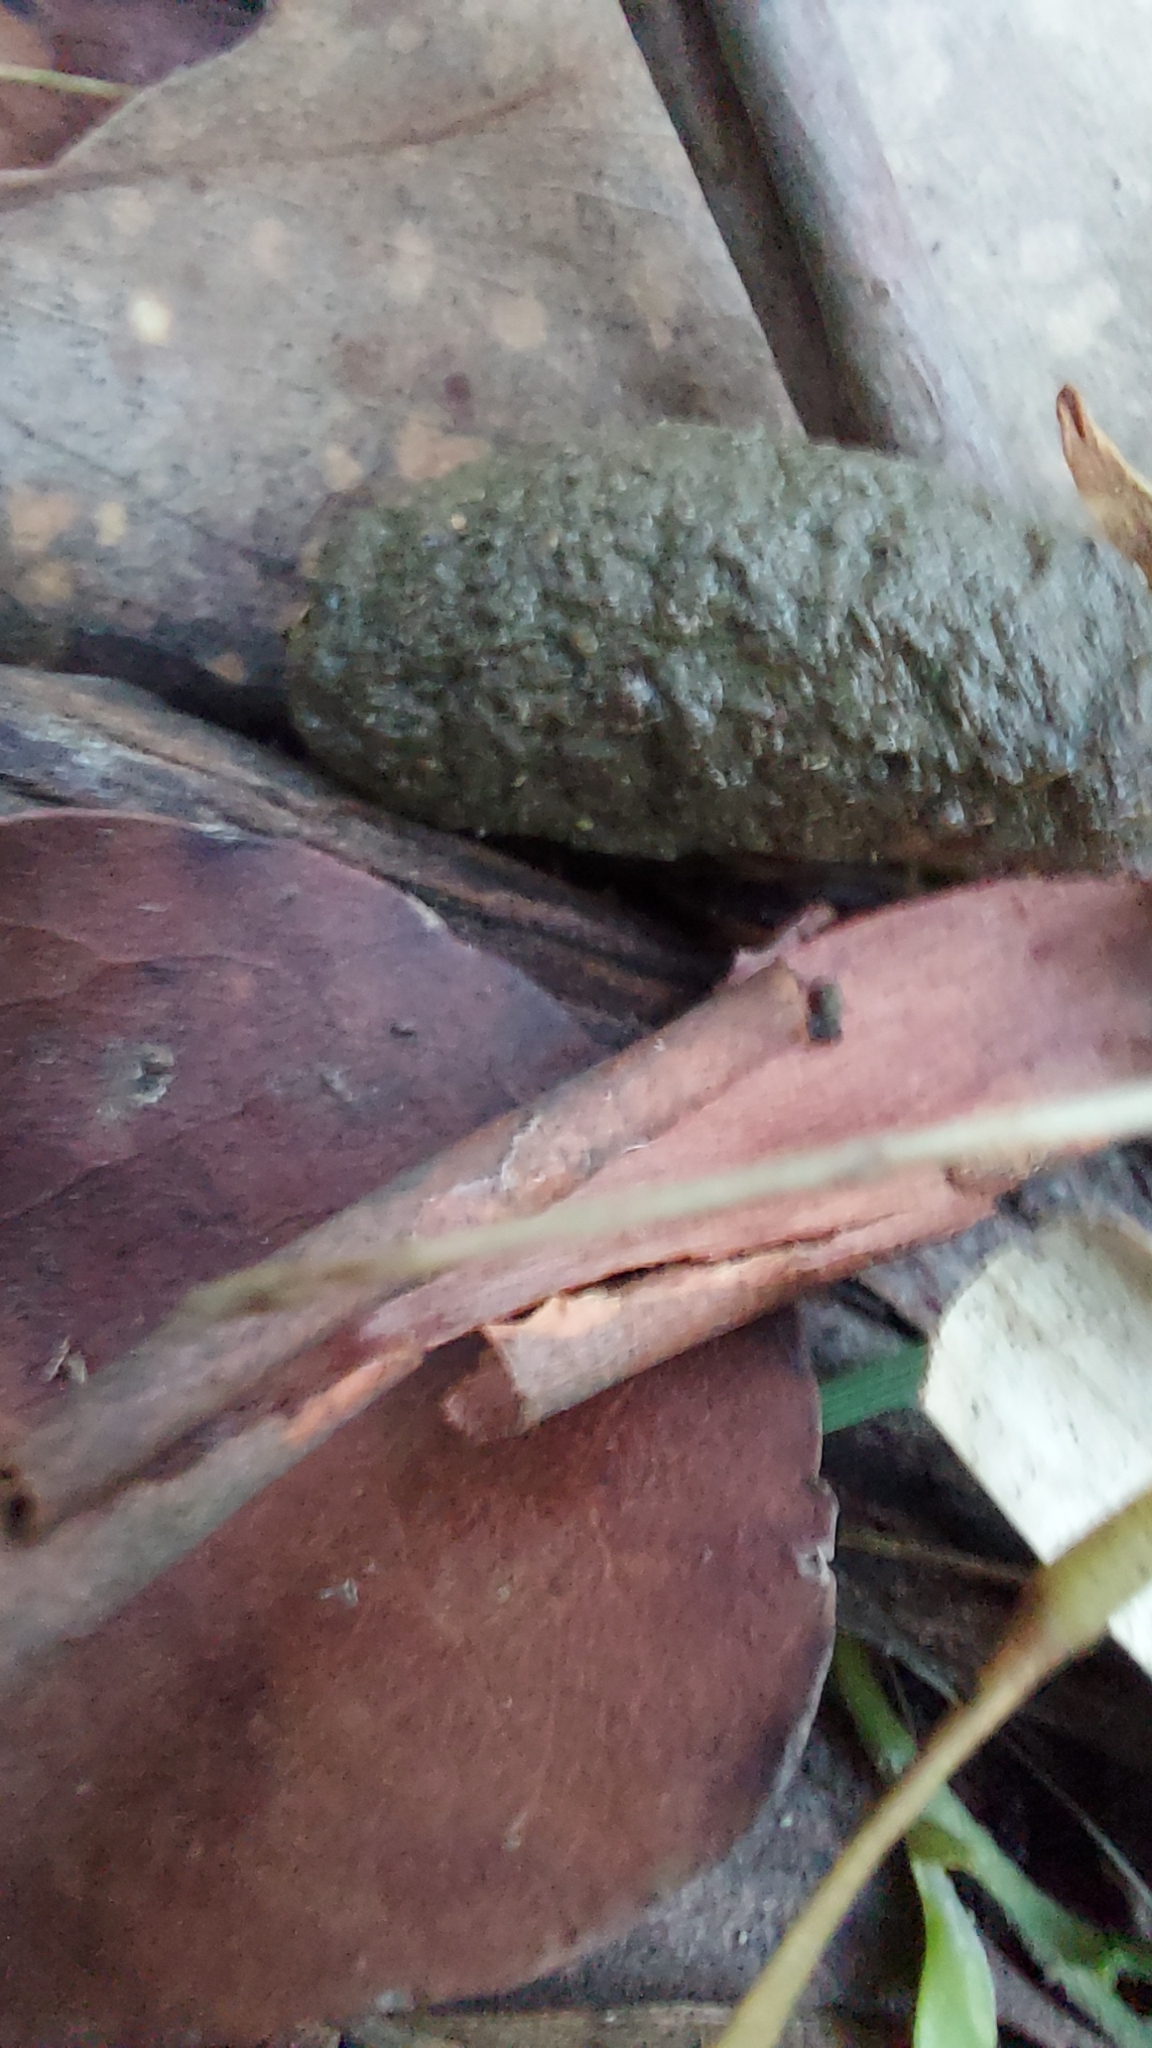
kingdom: Animalia
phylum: Chordata
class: Mammalia
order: Diprotodontia
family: Phascolarctidae
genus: Phascolarctos
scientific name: Phascolarctos cinereus
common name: Koala
